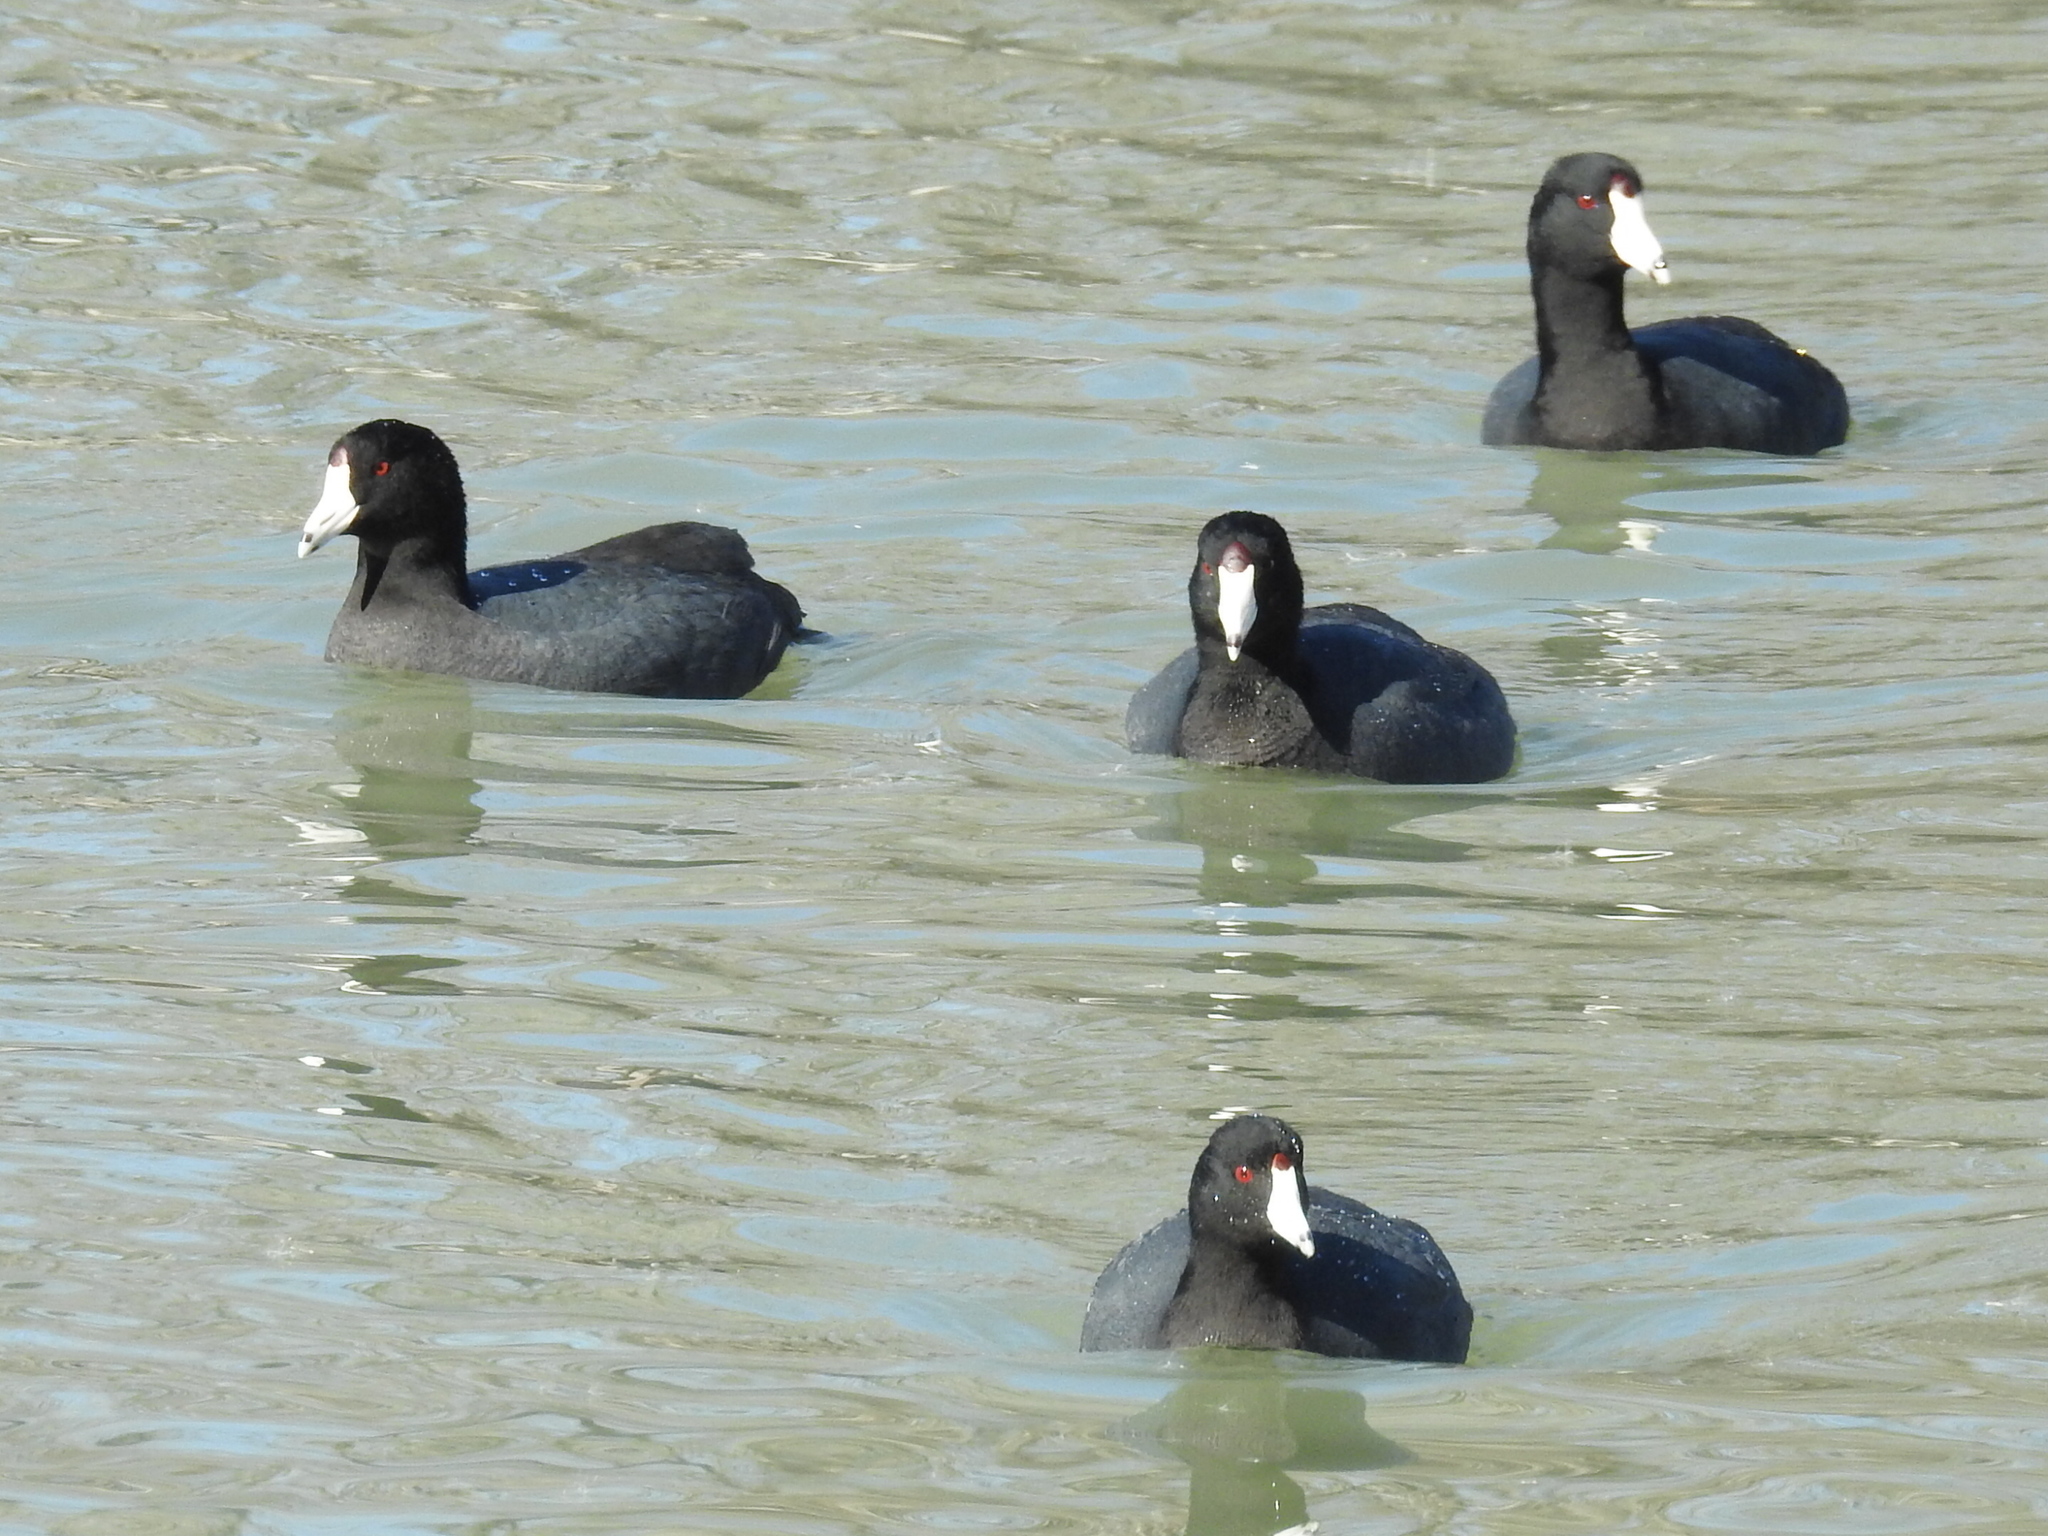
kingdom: Animalia
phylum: Chordata
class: Aves
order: Gruiformes
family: Rallidae
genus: Fulica
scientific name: Fulica americana
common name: American coot
